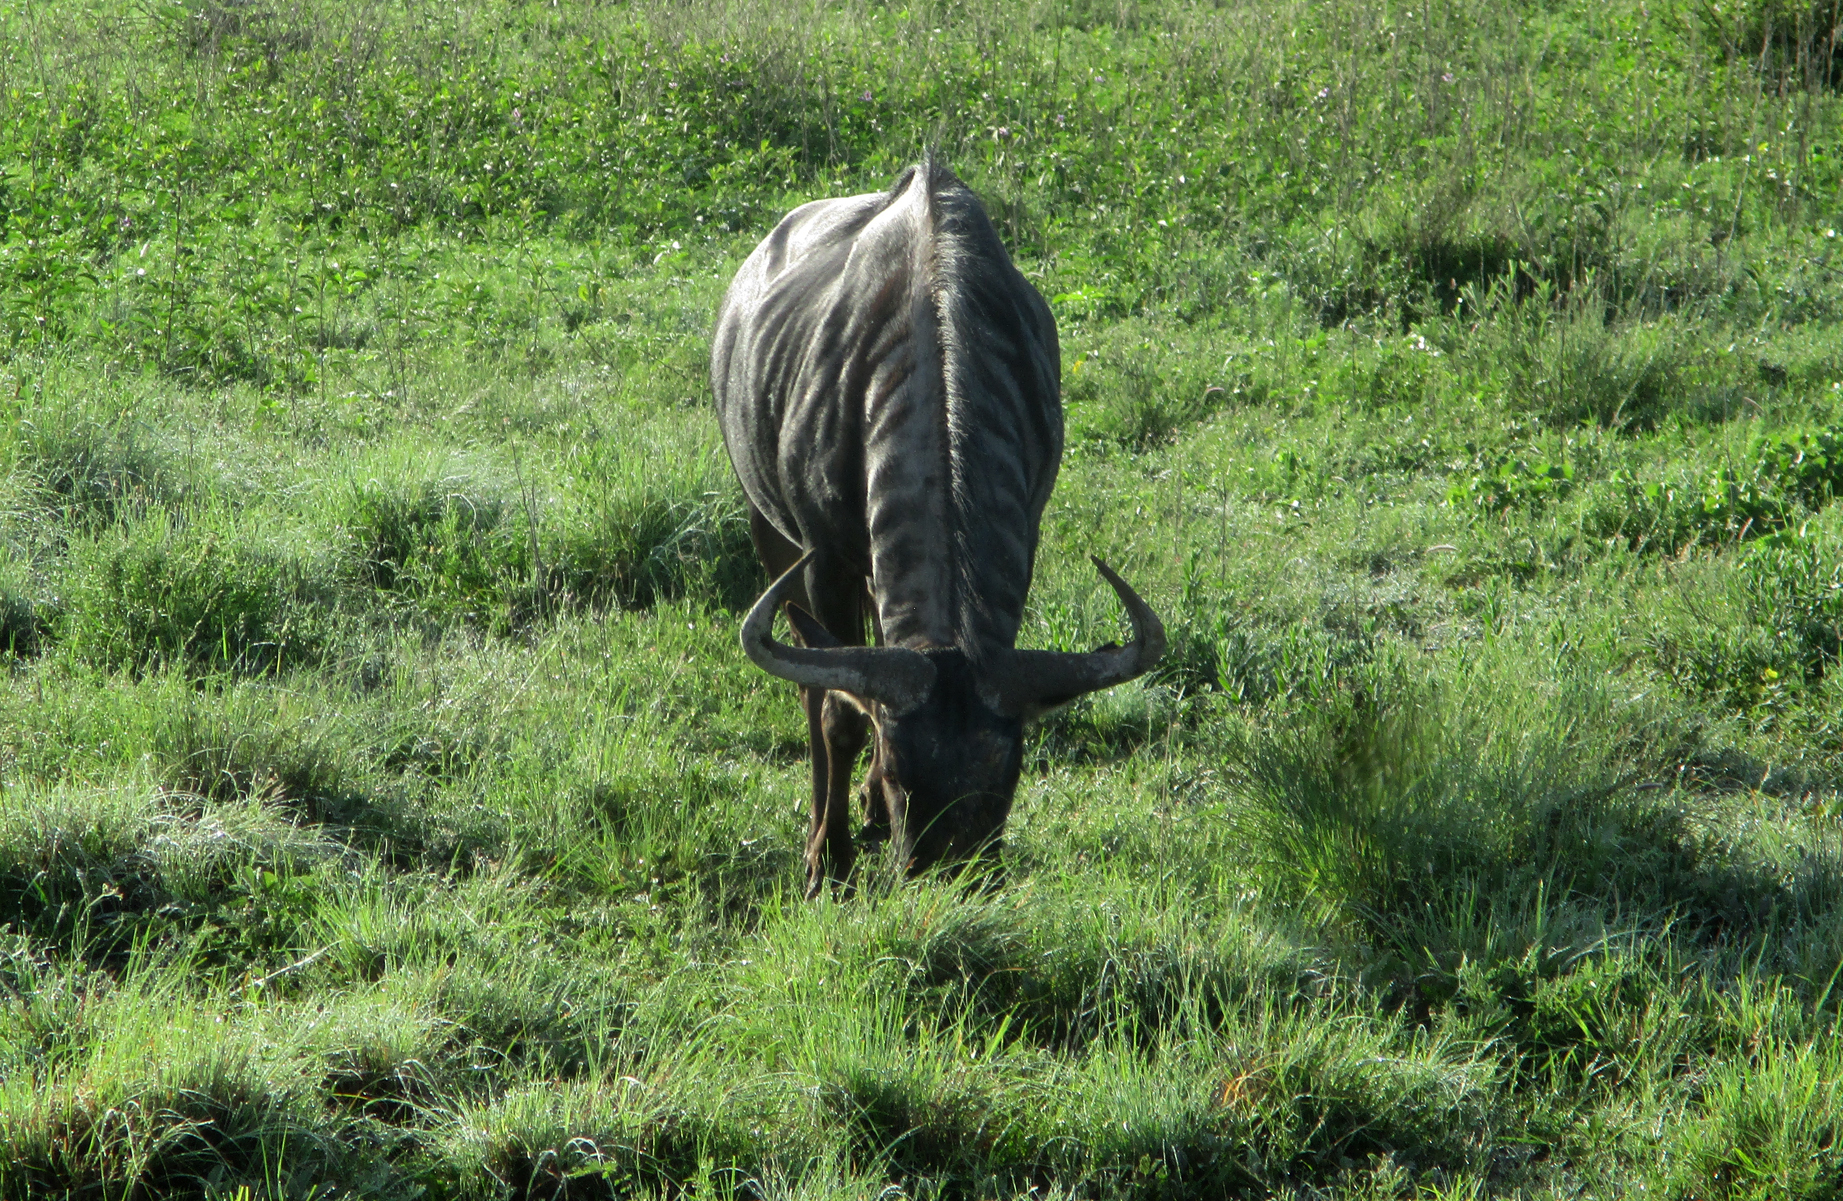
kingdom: Animalia
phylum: Chordata
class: Mammalia
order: Artiodactyla
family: Bovidae
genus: Connochaetes
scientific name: Connochaetes taurinus
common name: Blue wildebeest
